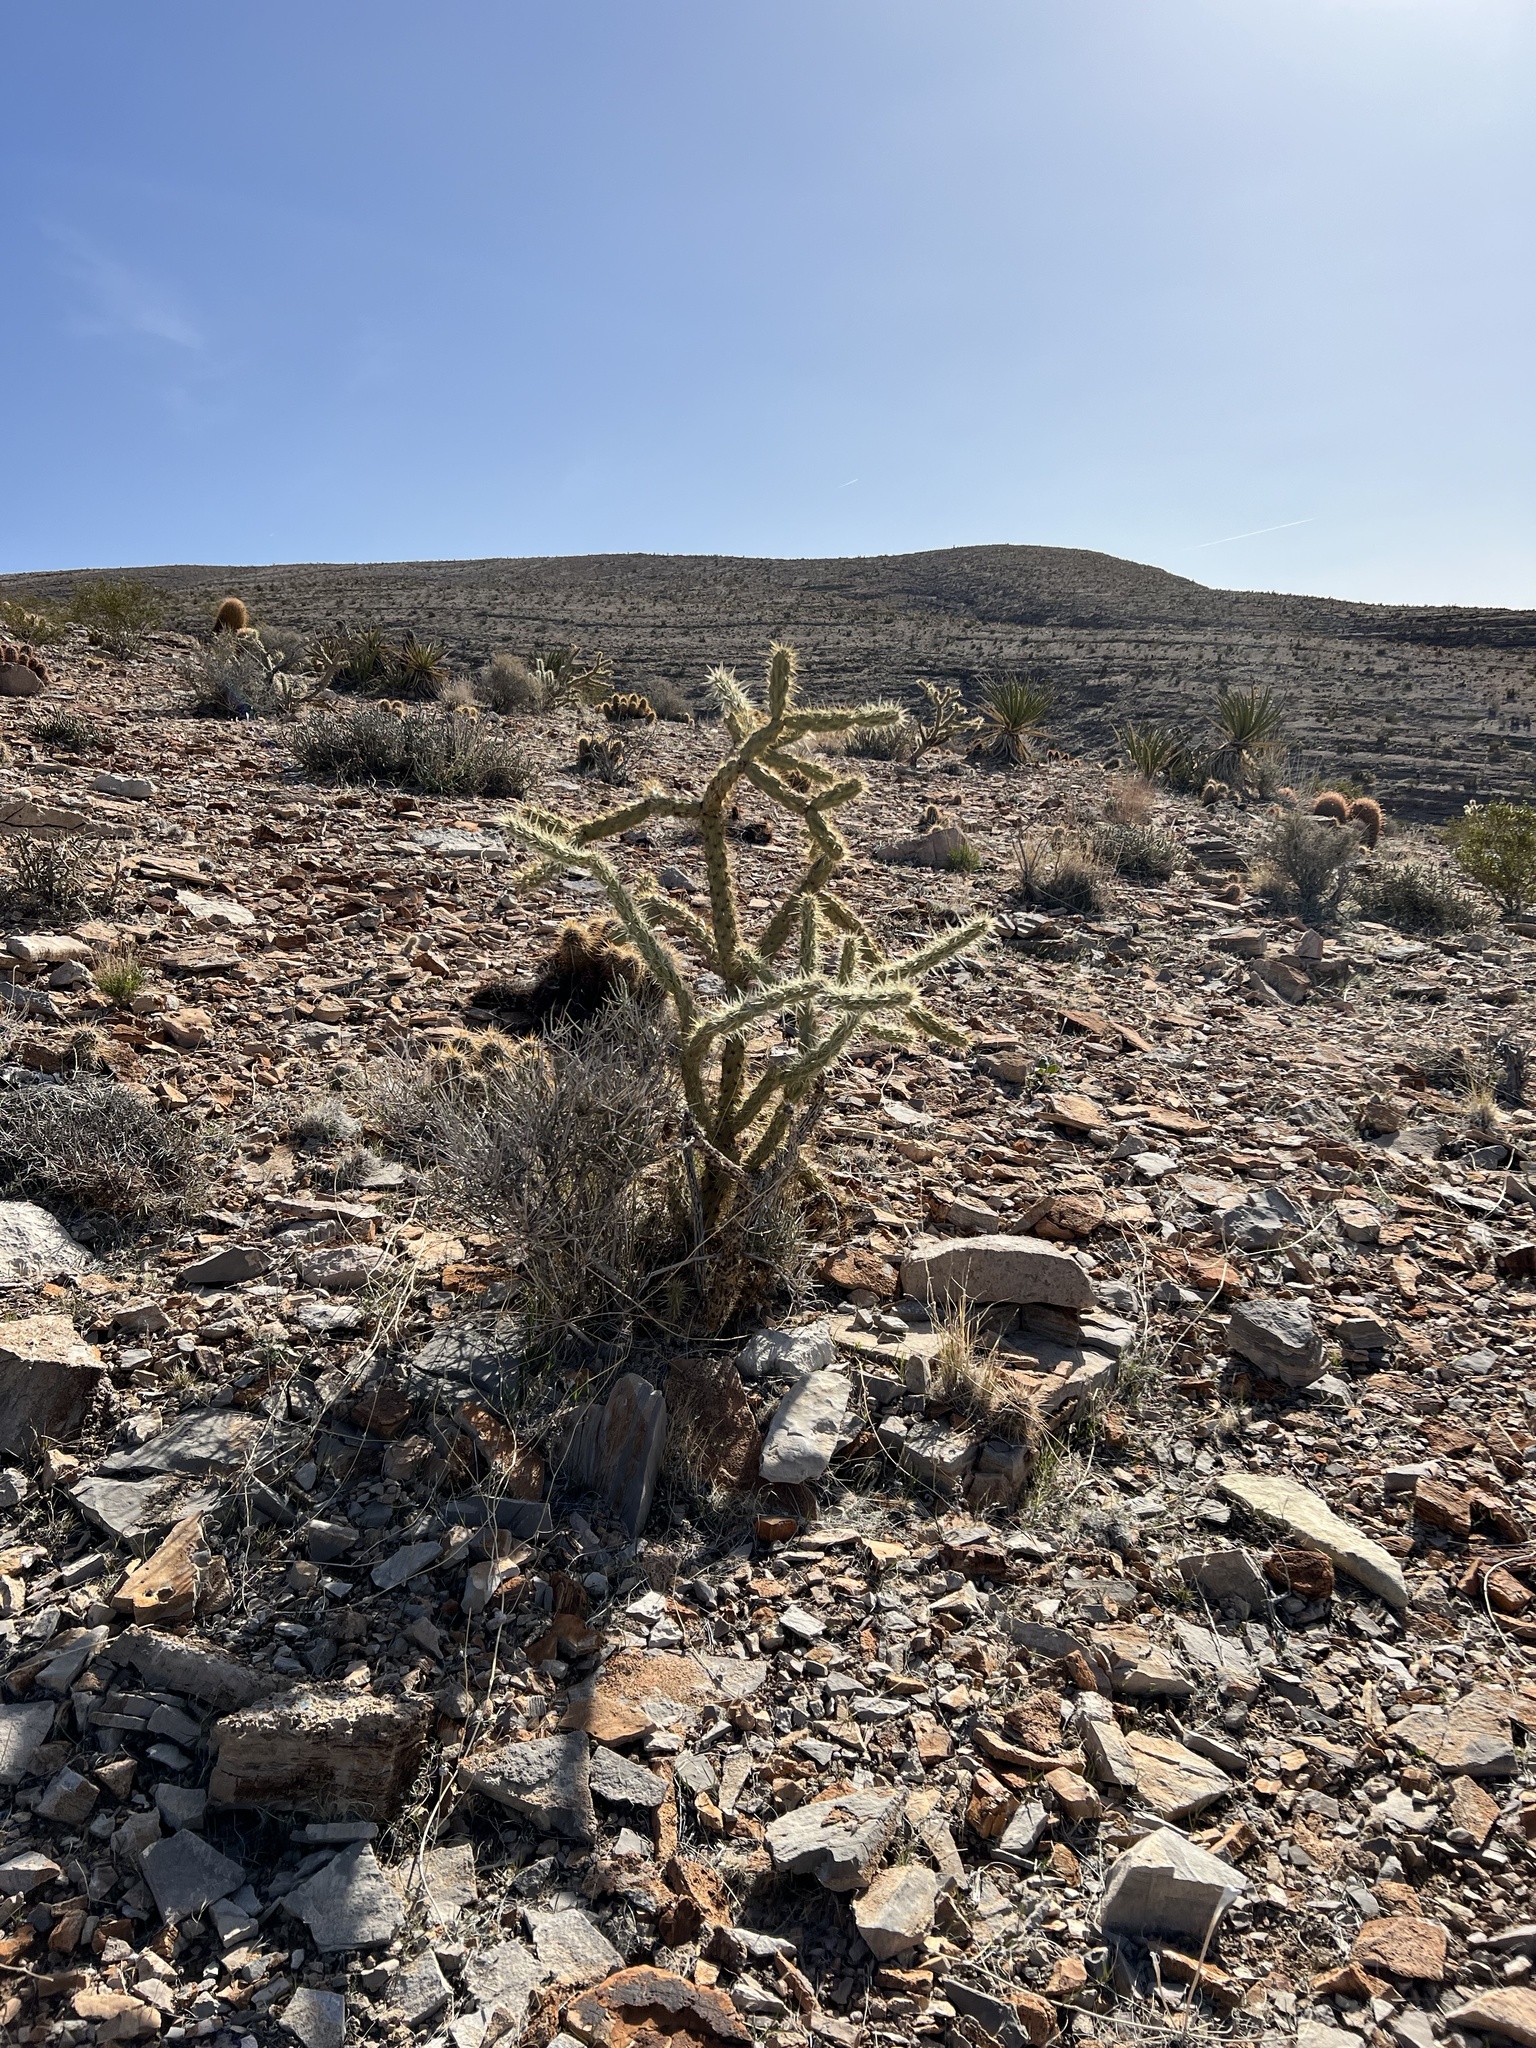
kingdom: Plantae
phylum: Tracheophyta
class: Magnoliopsida
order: Caryophyllales
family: Cactaceae
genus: Cylindropuntia
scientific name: Cylindropuntia acanthocarpa
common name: Buckhorn cholla
